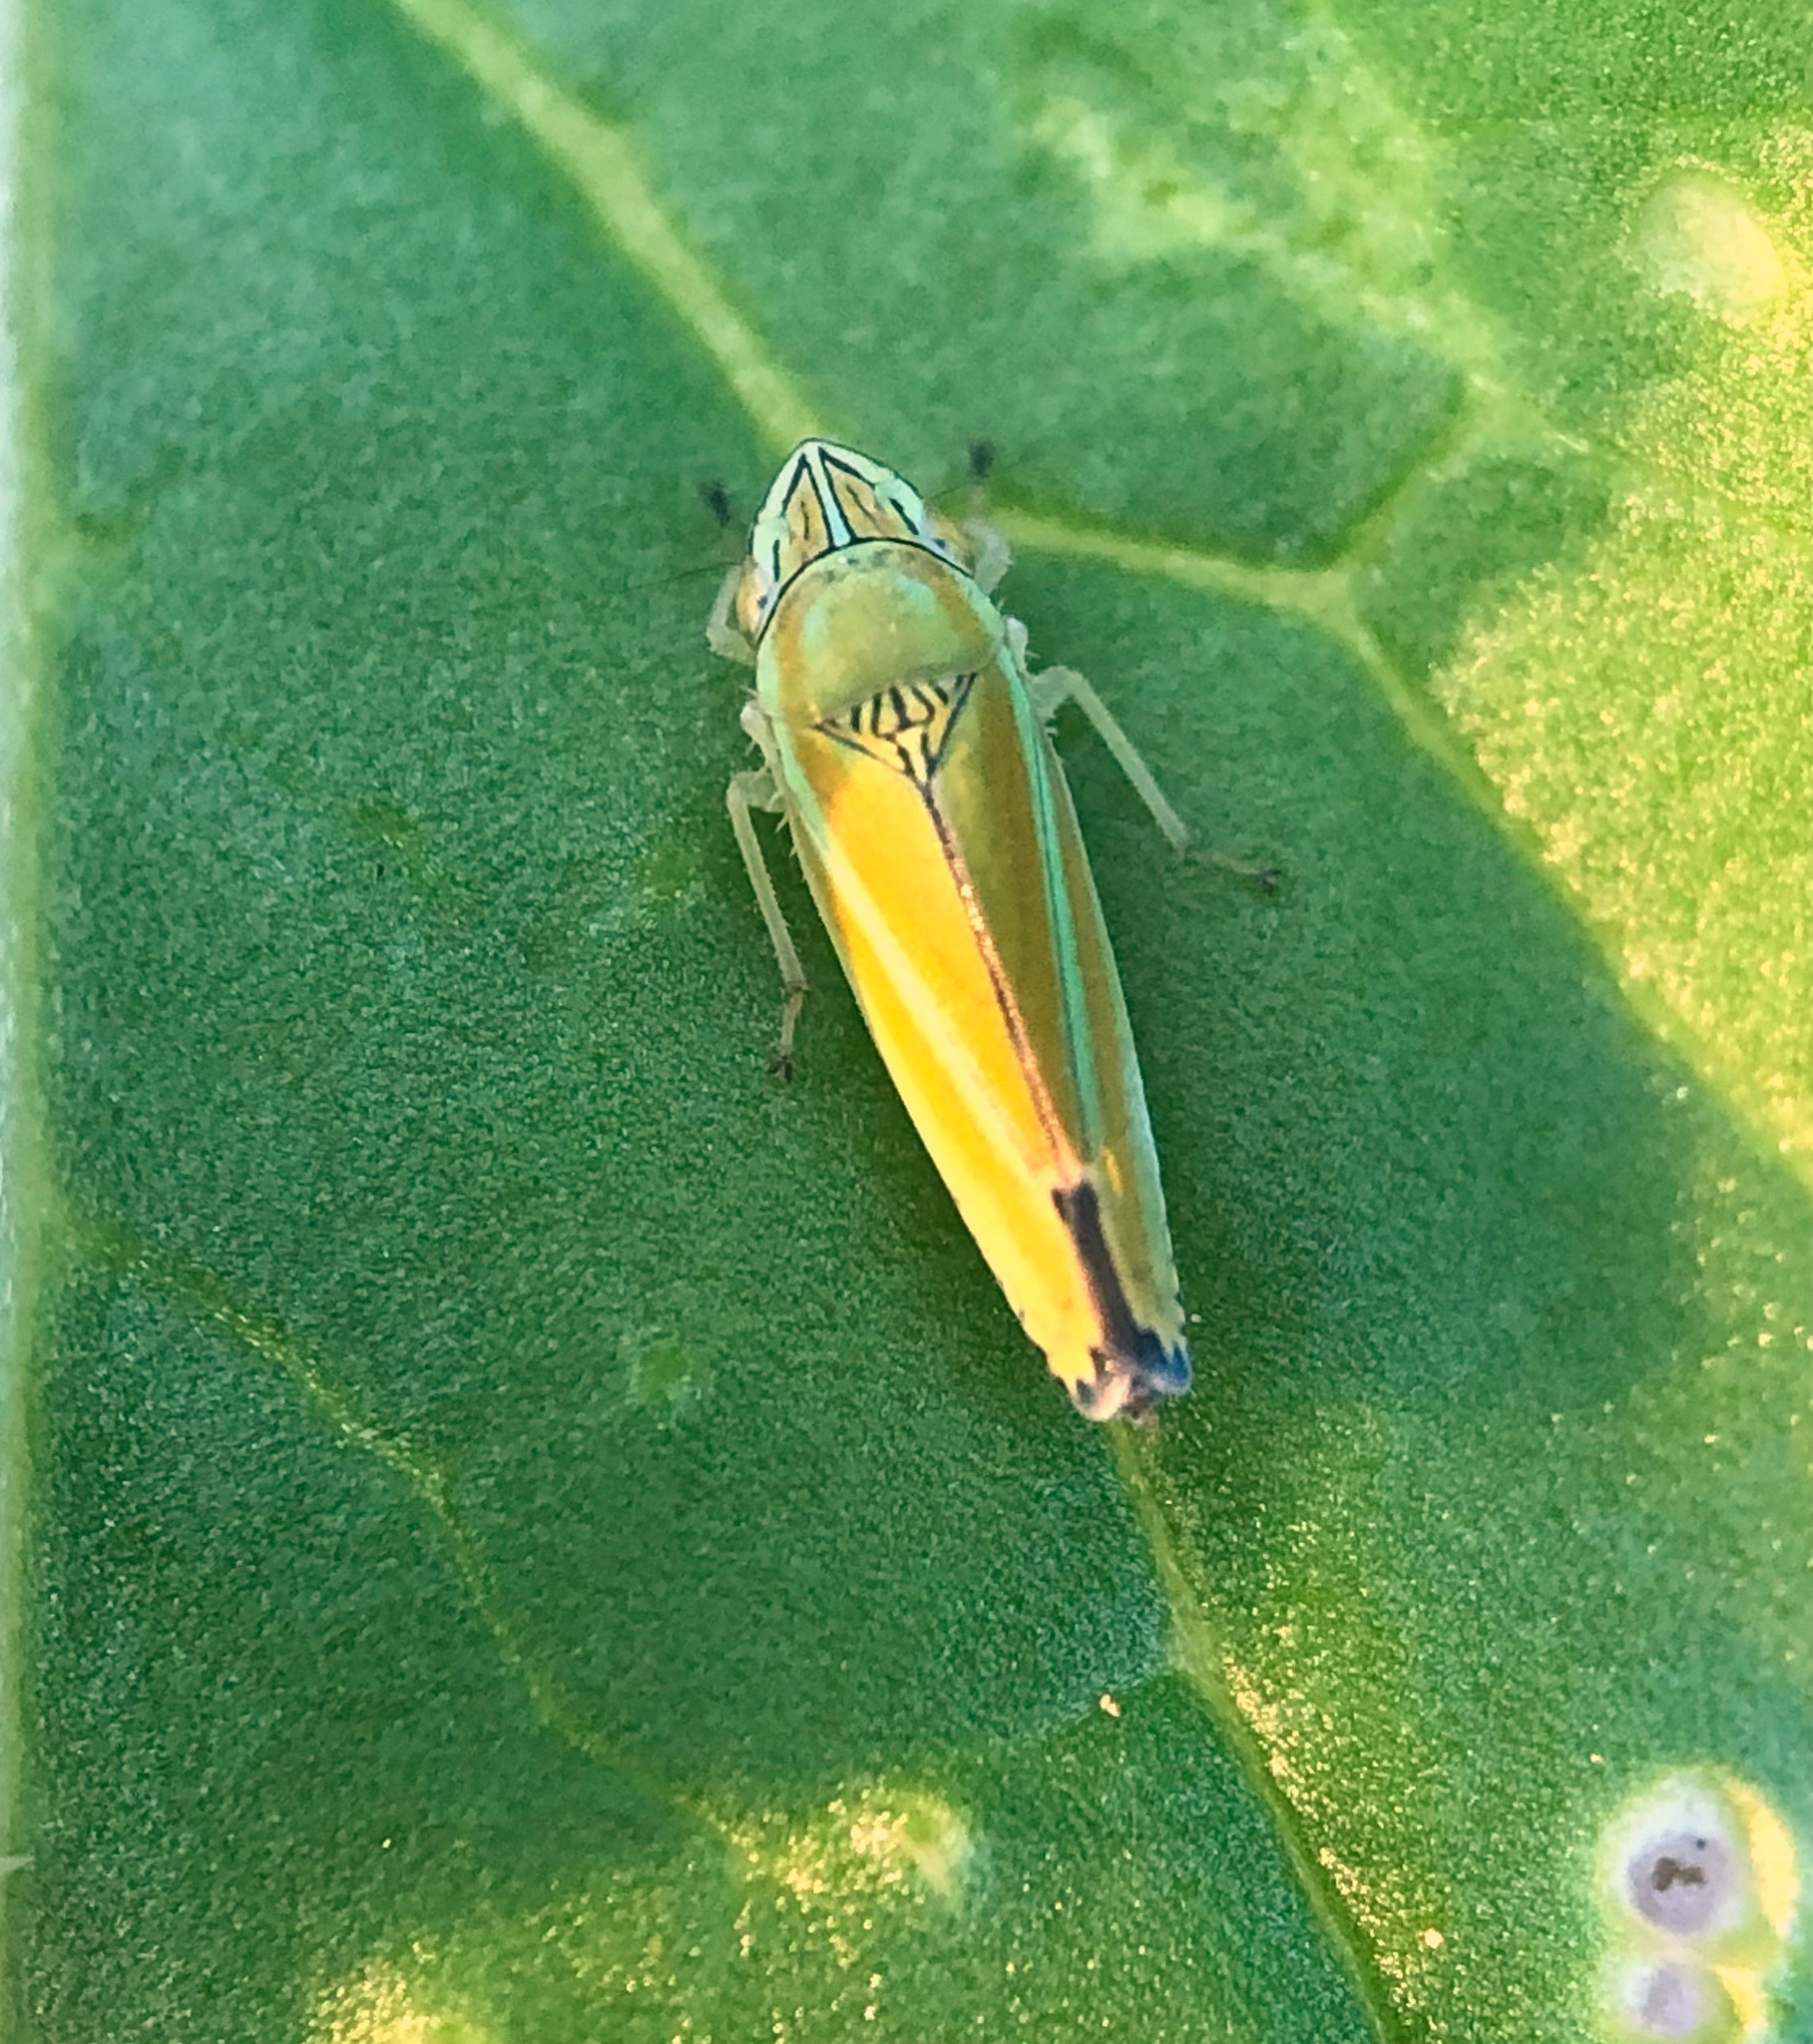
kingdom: Animalia
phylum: Arthropoda
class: Insecta
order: Hemiptera
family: Cicadellidae
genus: Graphocephala
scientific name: Graphocephala versuta
